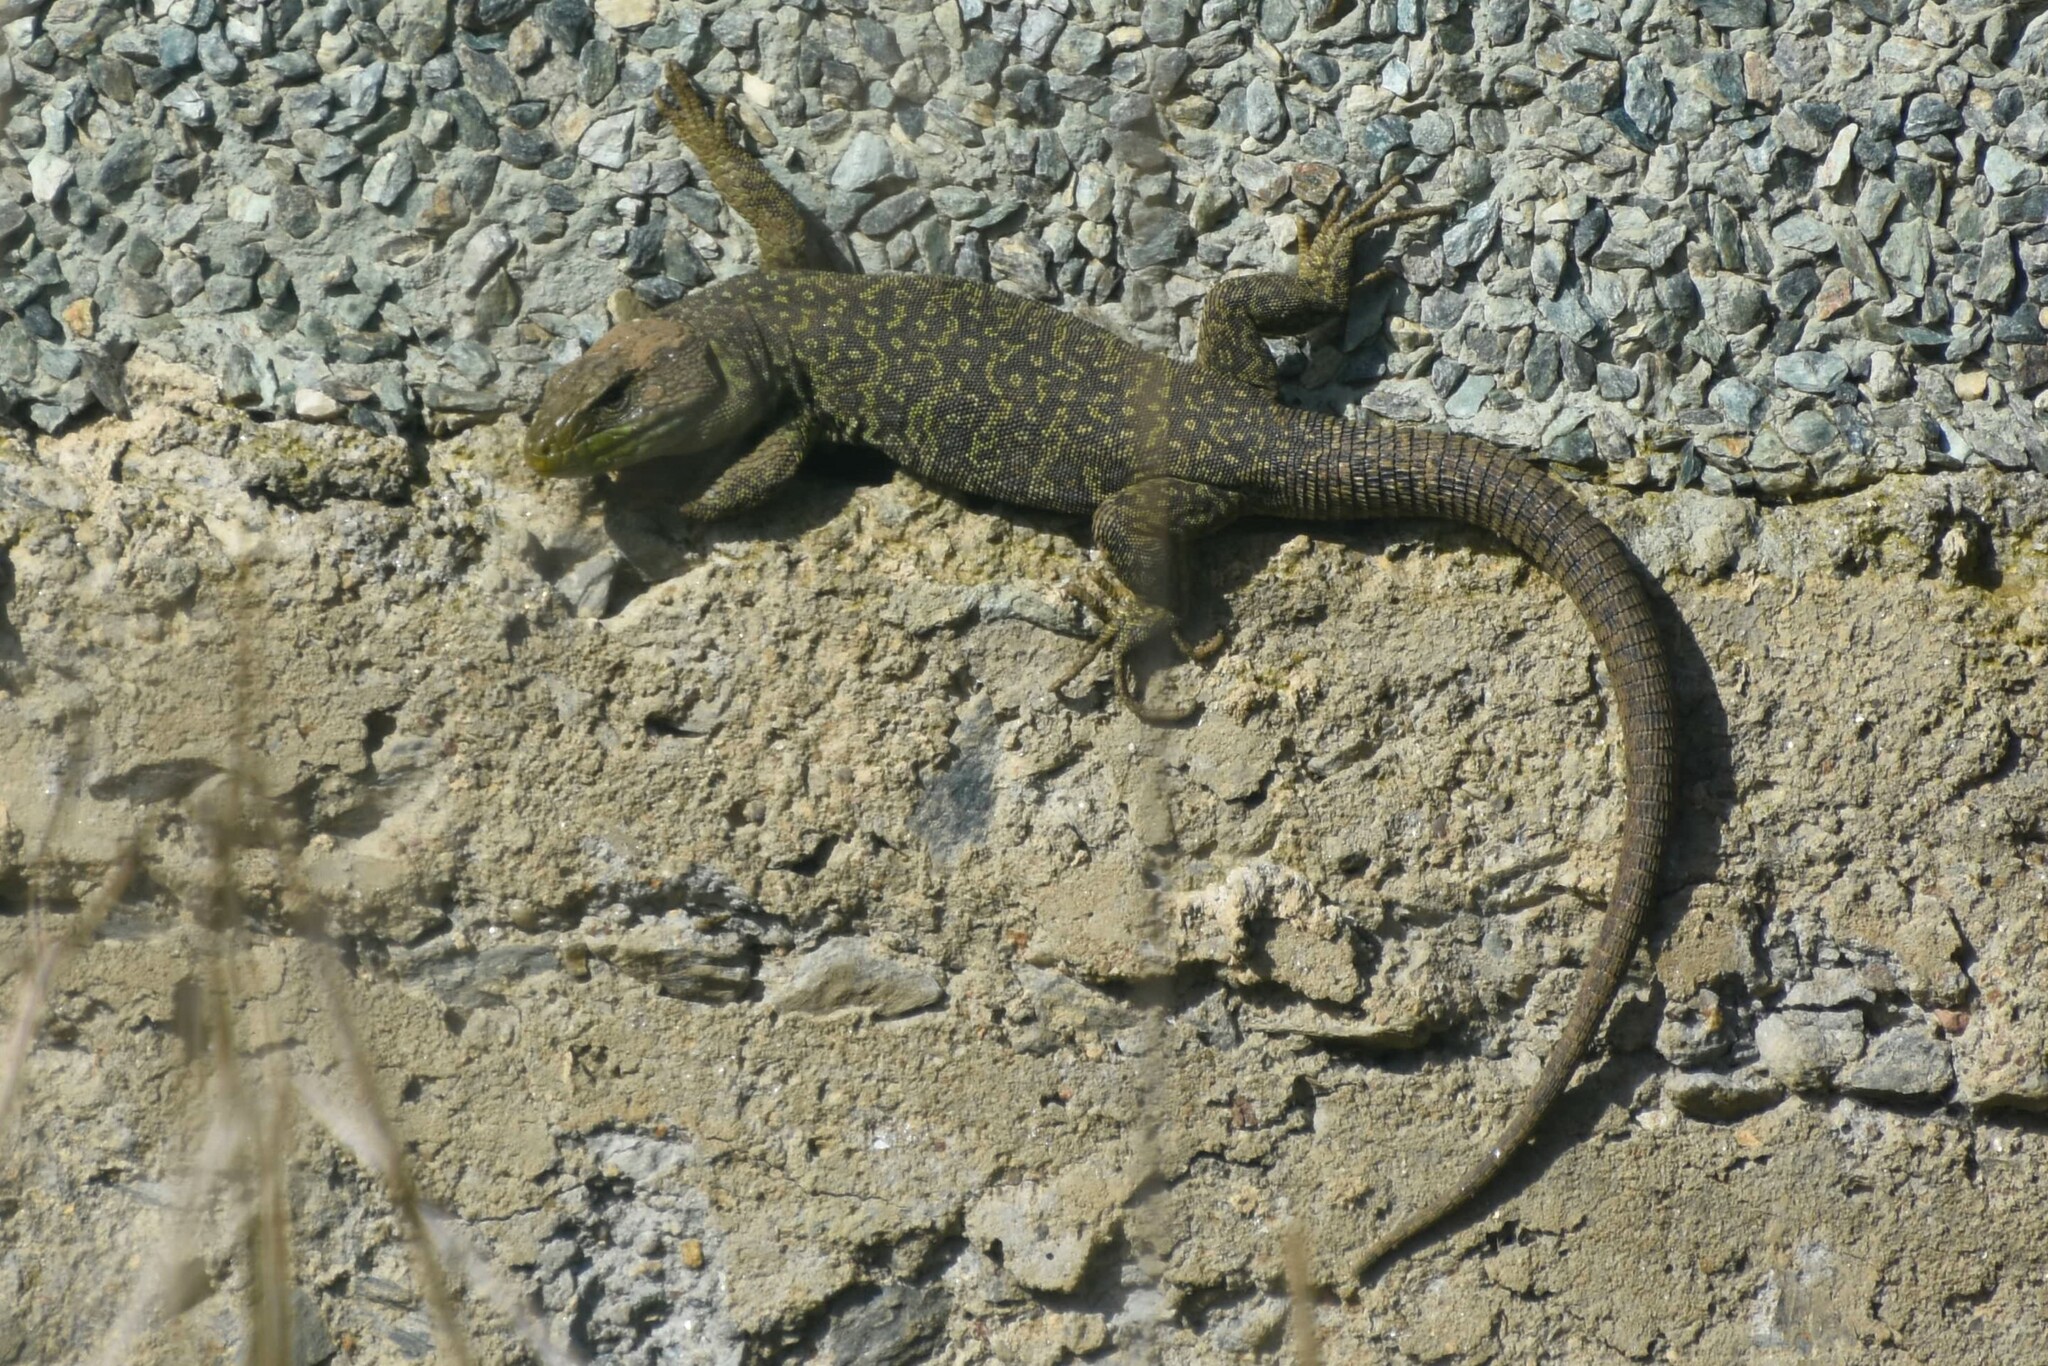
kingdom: Animalia
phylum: Chordata
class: Squamata
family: Lacertidae
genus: Timon
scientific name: Timon lepidus
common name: Ocellated lizard
